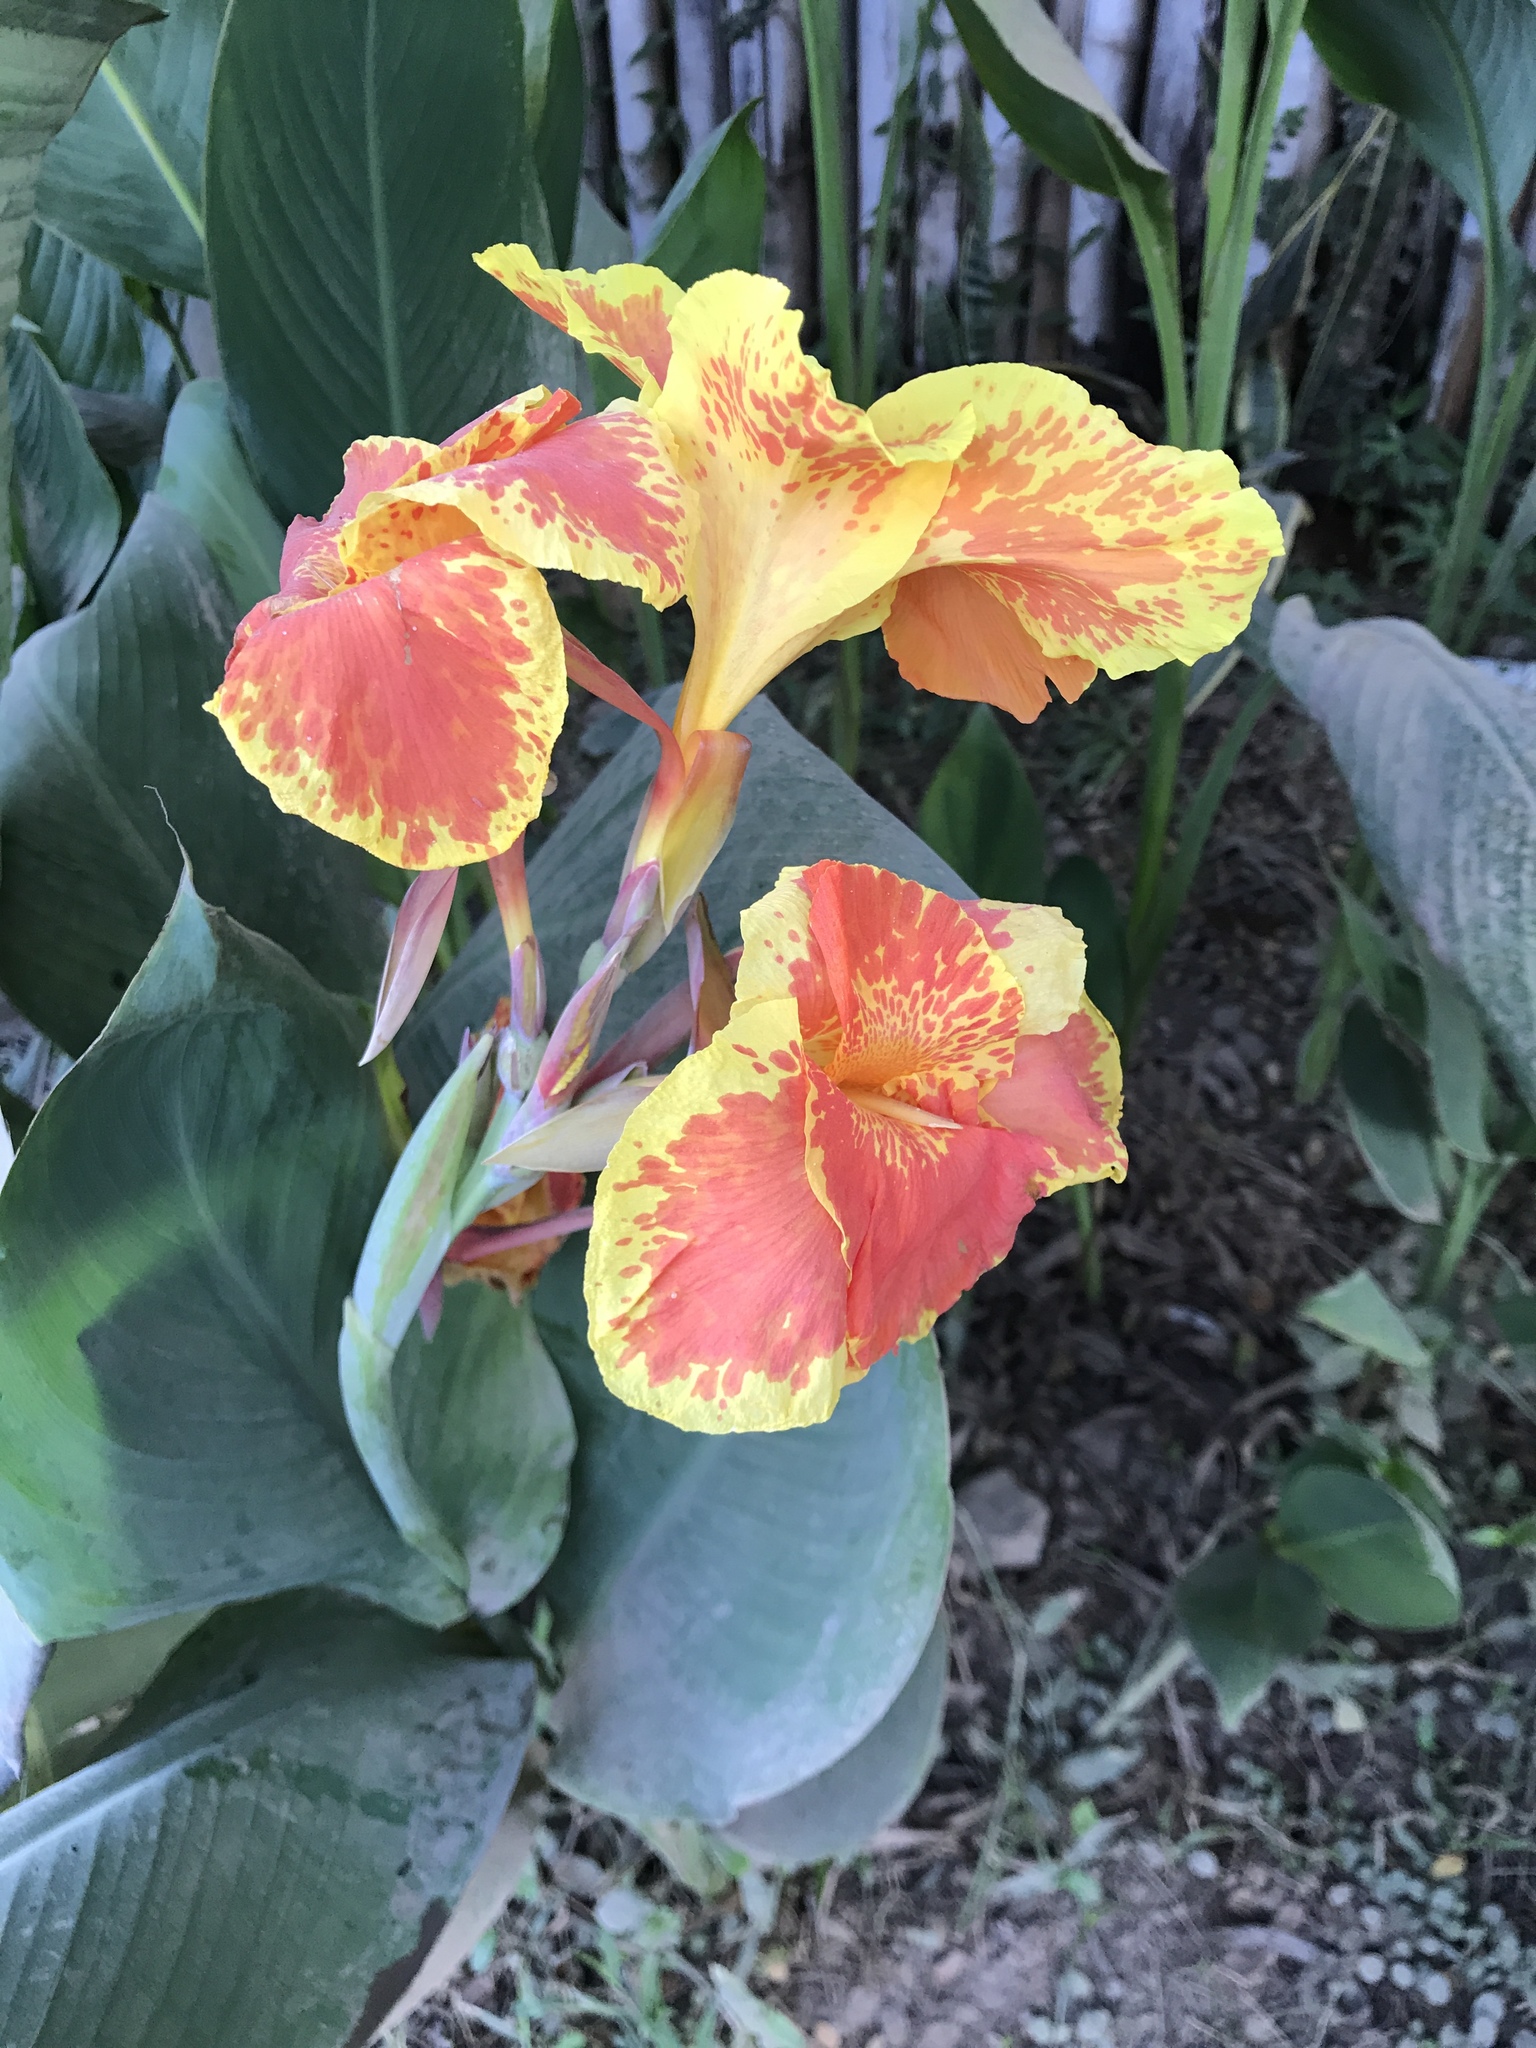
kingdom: Plantae
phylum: Tracheophyta
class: Liliopsida
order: Zingiberales
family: Cannaceae
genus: Canna
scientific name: Canna hybrida
